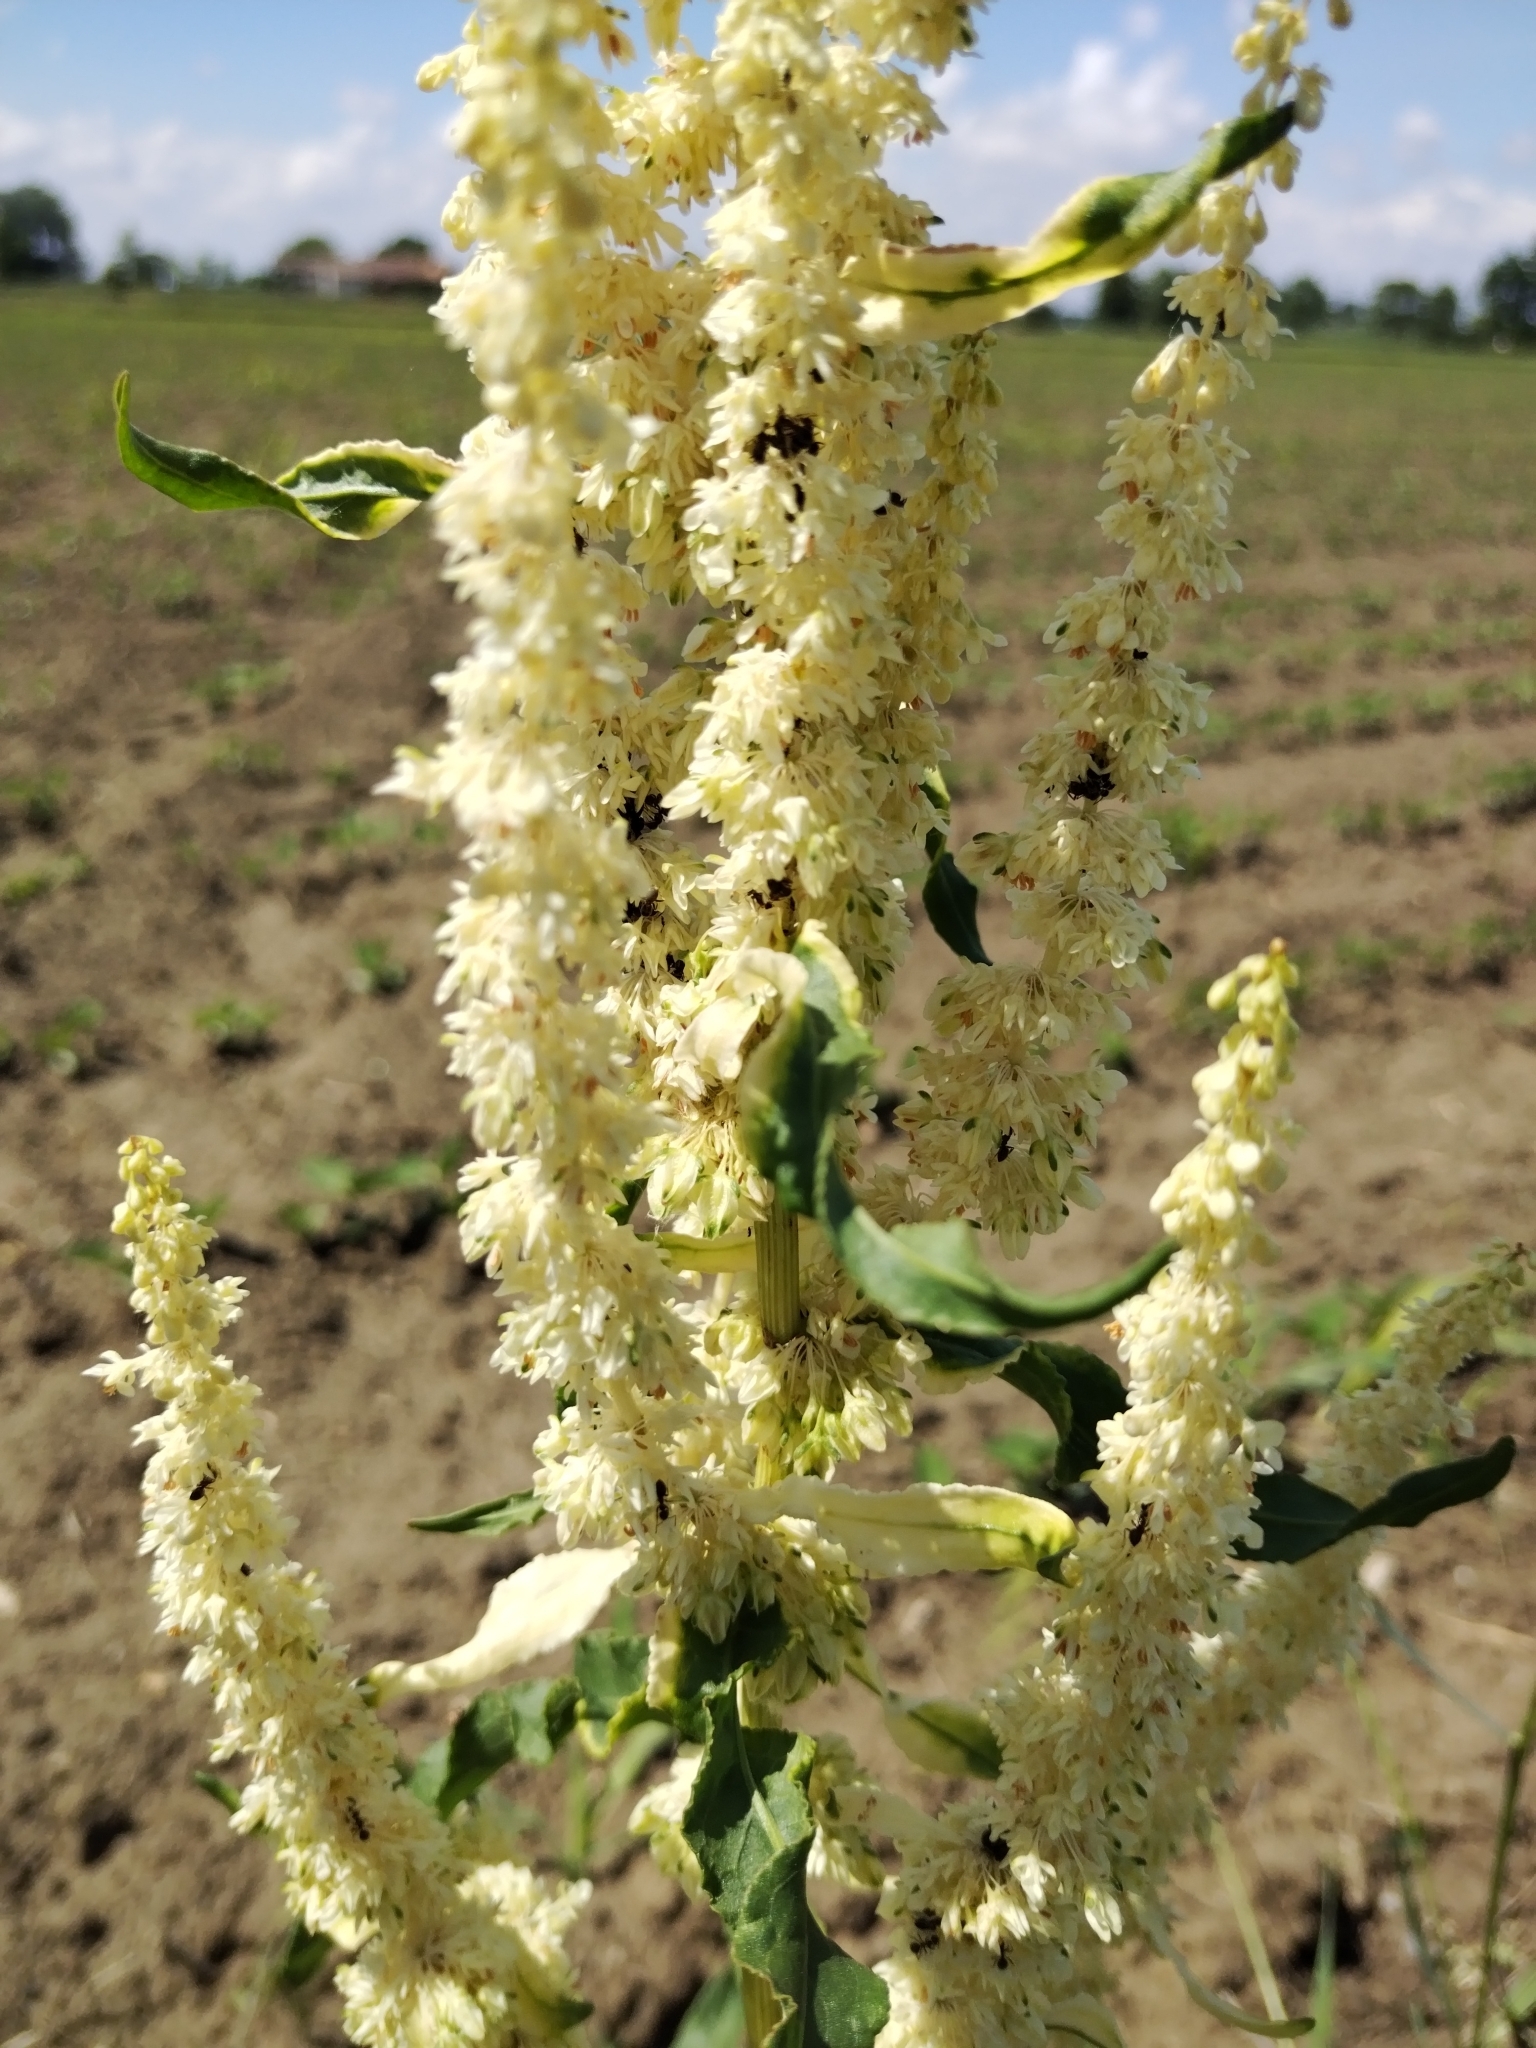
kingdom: Plantae
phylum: Tracheophyta
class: Magnoliopsida
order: Caryophyllales
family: Polygonaceae
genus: Rumex
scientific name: Rumex crispus
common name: Curled dock
